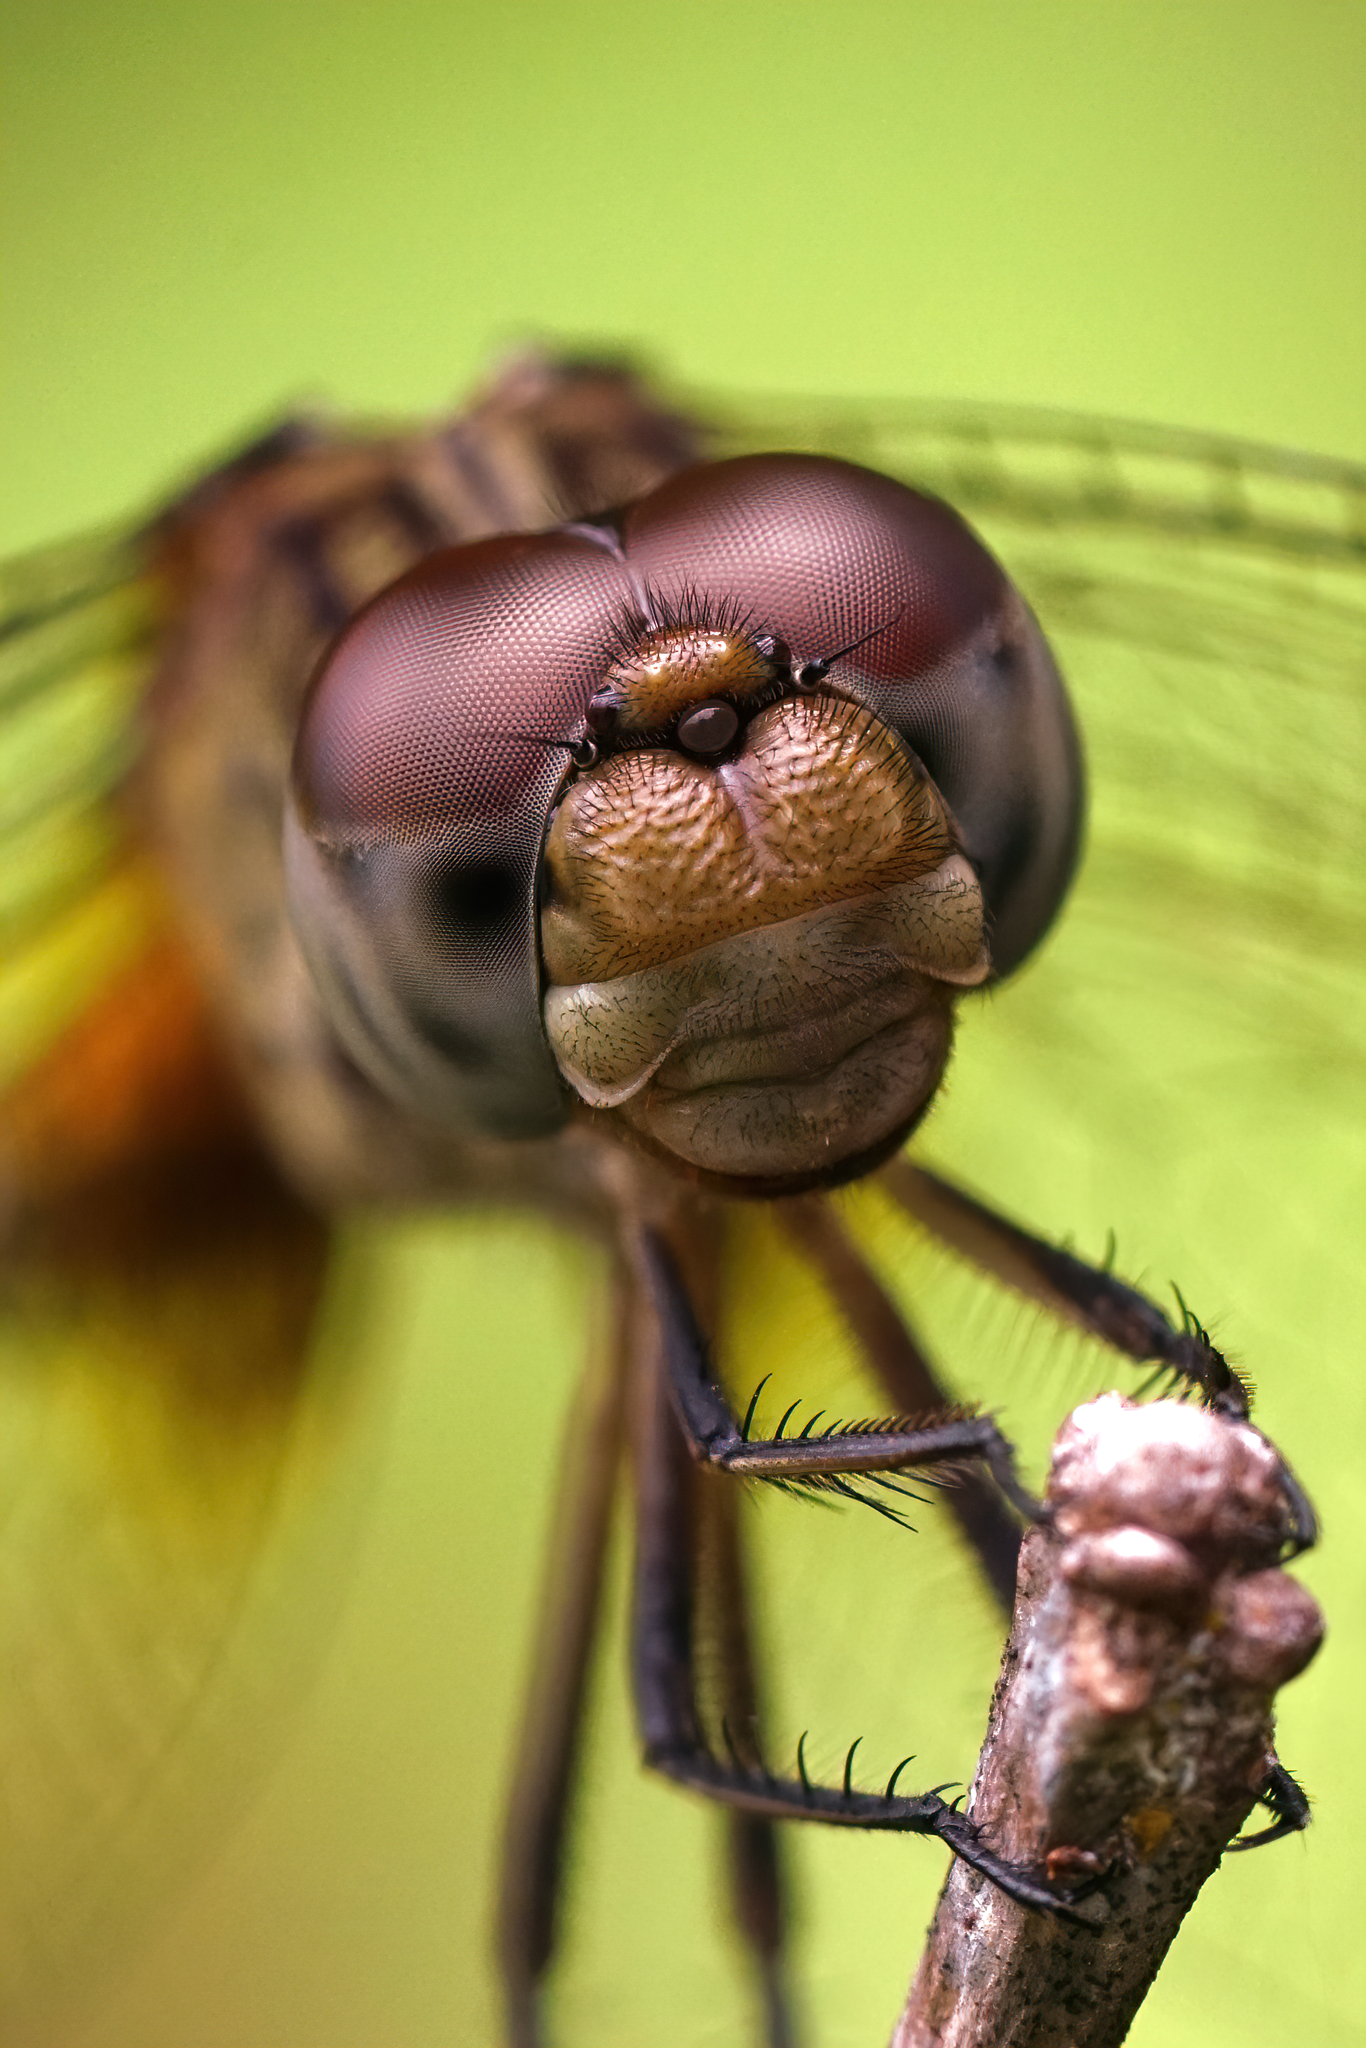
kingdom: Animalia
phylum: Arthropoda
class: Insecta
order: Odonata
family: Libellulidae
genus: Erythrodiplax
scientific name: Erythrodiplax umbrata
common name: Band-winged dragonlet
